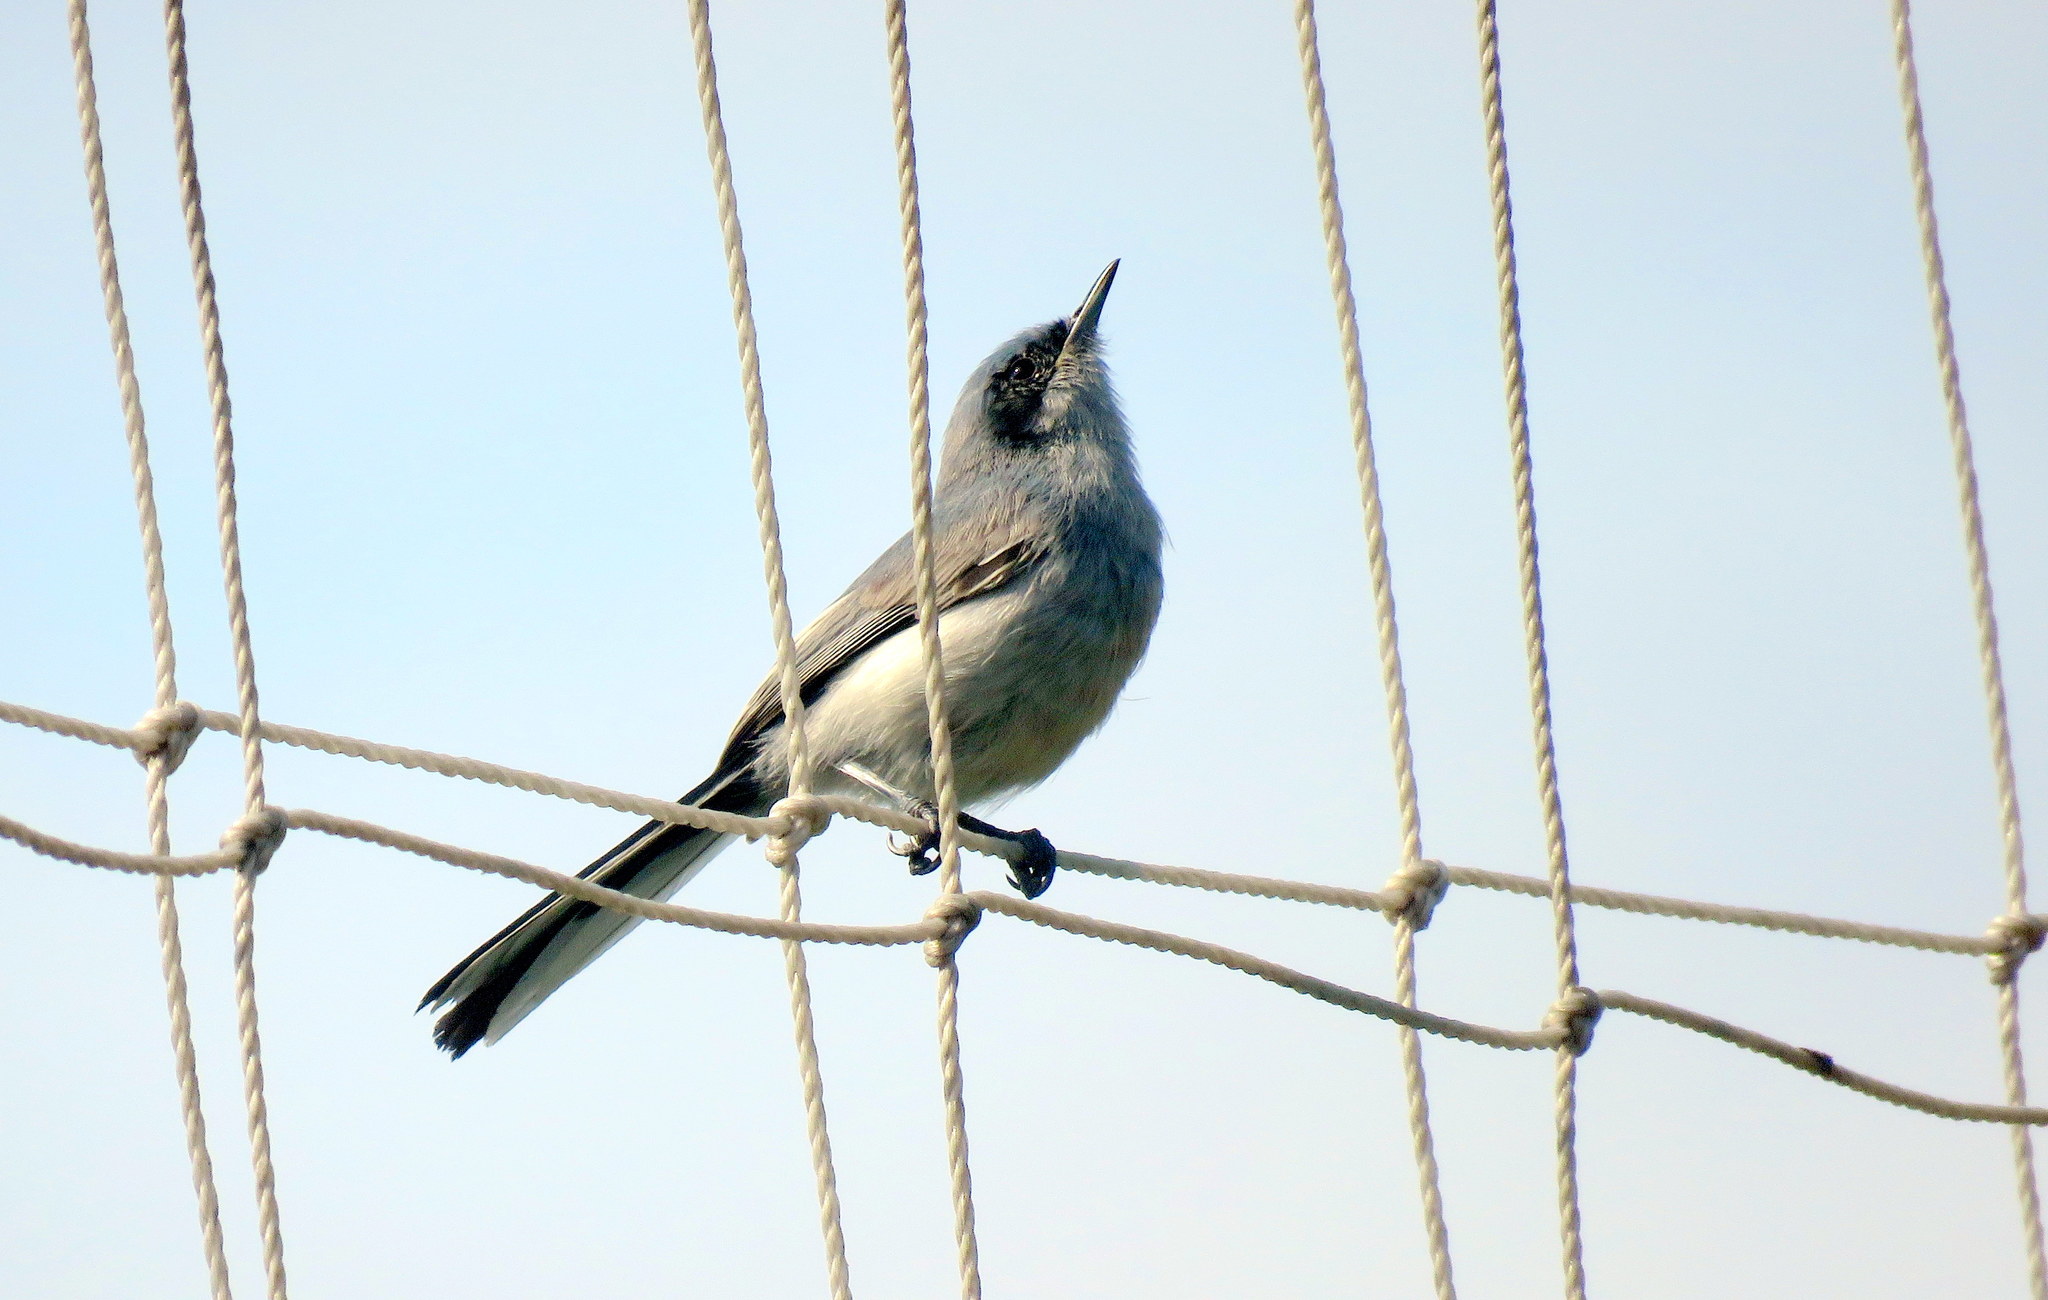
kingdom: Animalia
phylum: Chordata
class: Aves
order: Passeriformes
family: Polioptilidae
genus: Polioptila
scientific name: Polioptila dumicola
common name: Masked gnatcatcher
